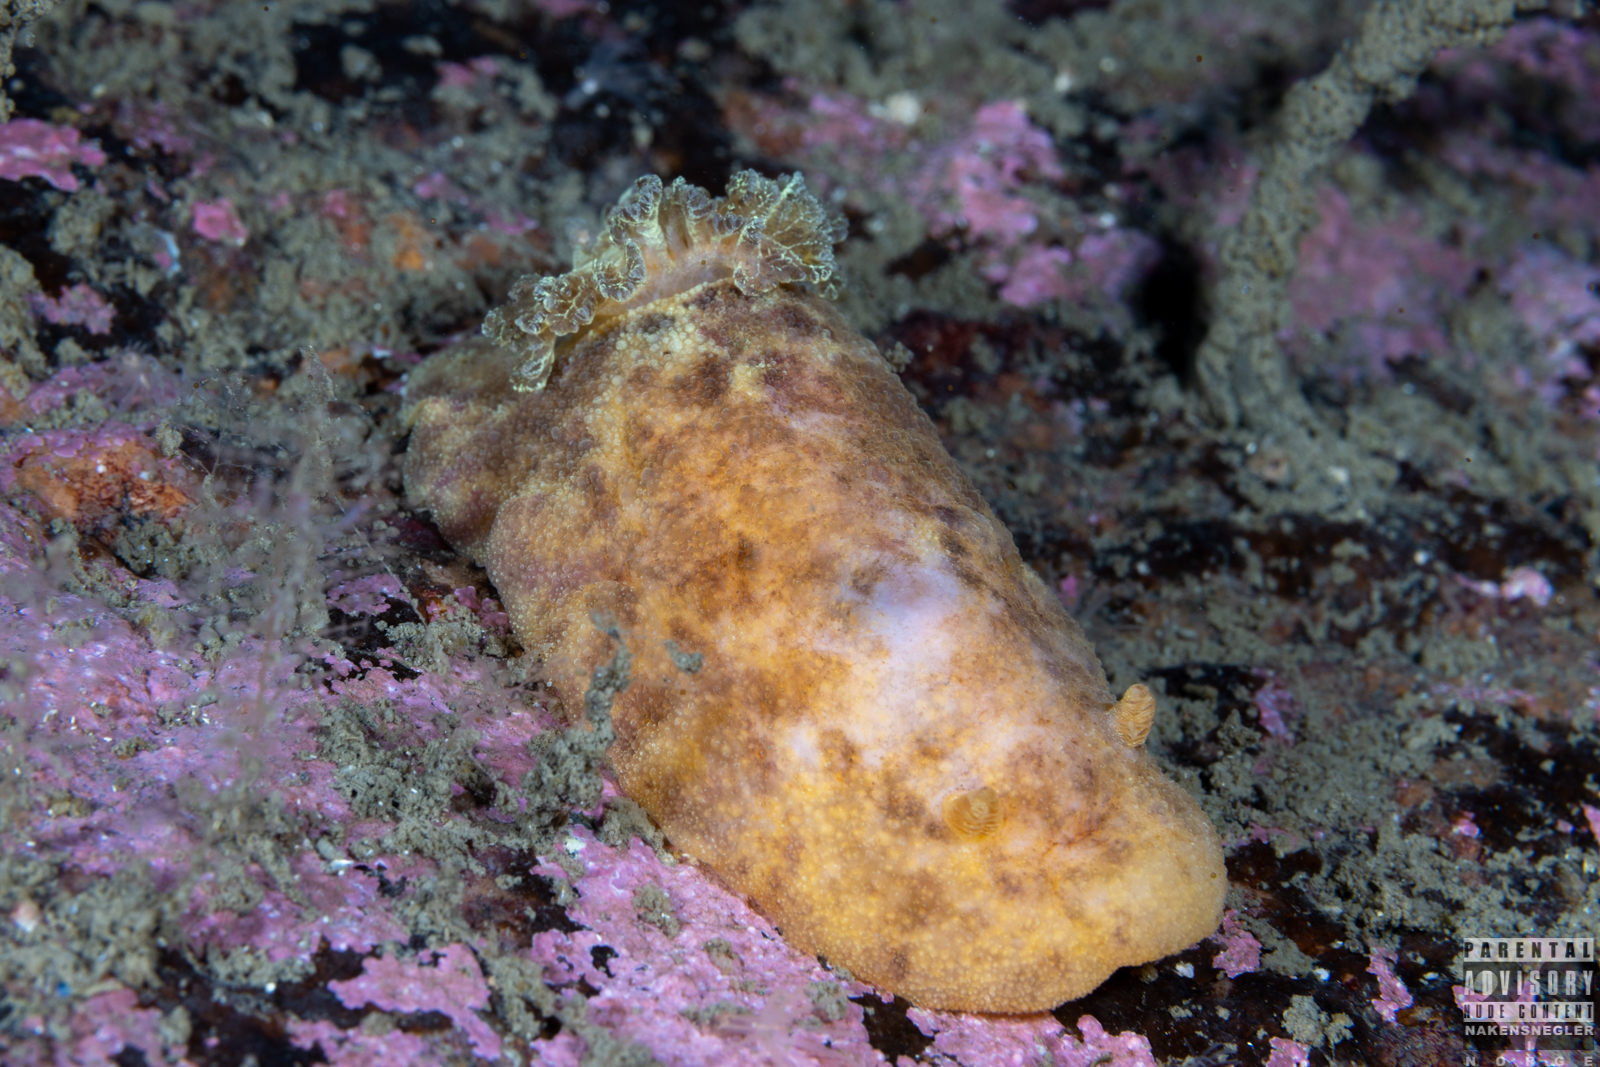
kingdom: Animalia
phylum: Mollusca
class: Gastropoda
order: Nudibranchia
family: Dorididae
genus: Doris
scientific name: Doris pseudoargus
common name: Sea lemon
